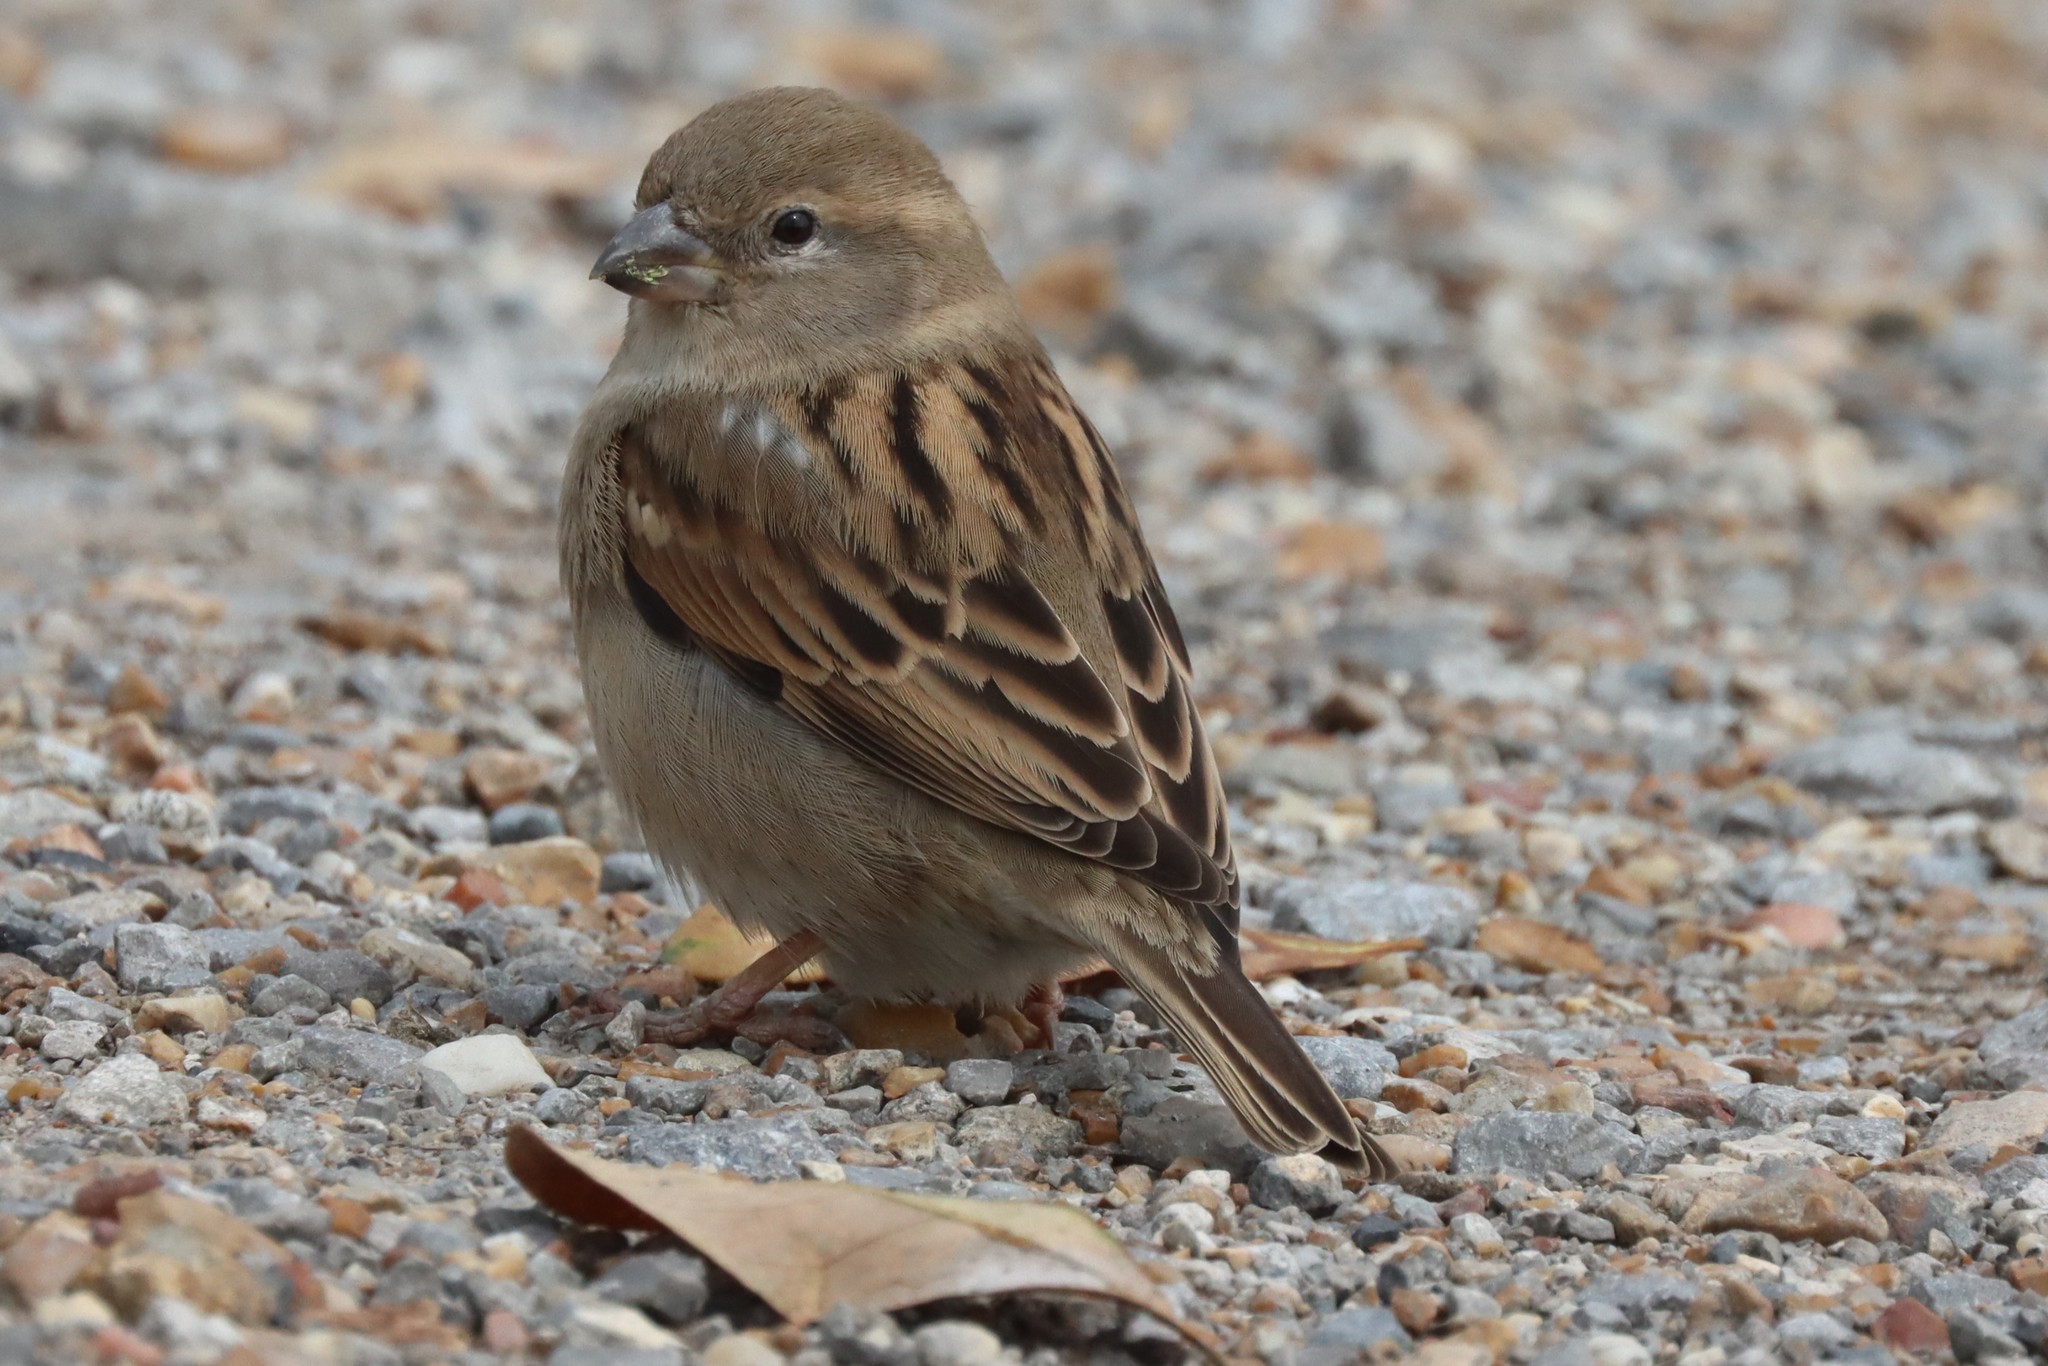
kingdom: Animalia
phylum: Chordata
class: Aves
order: Passeriformes
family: Passeridae
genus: Passer
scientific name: Passer domesticus
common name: House sparrow
